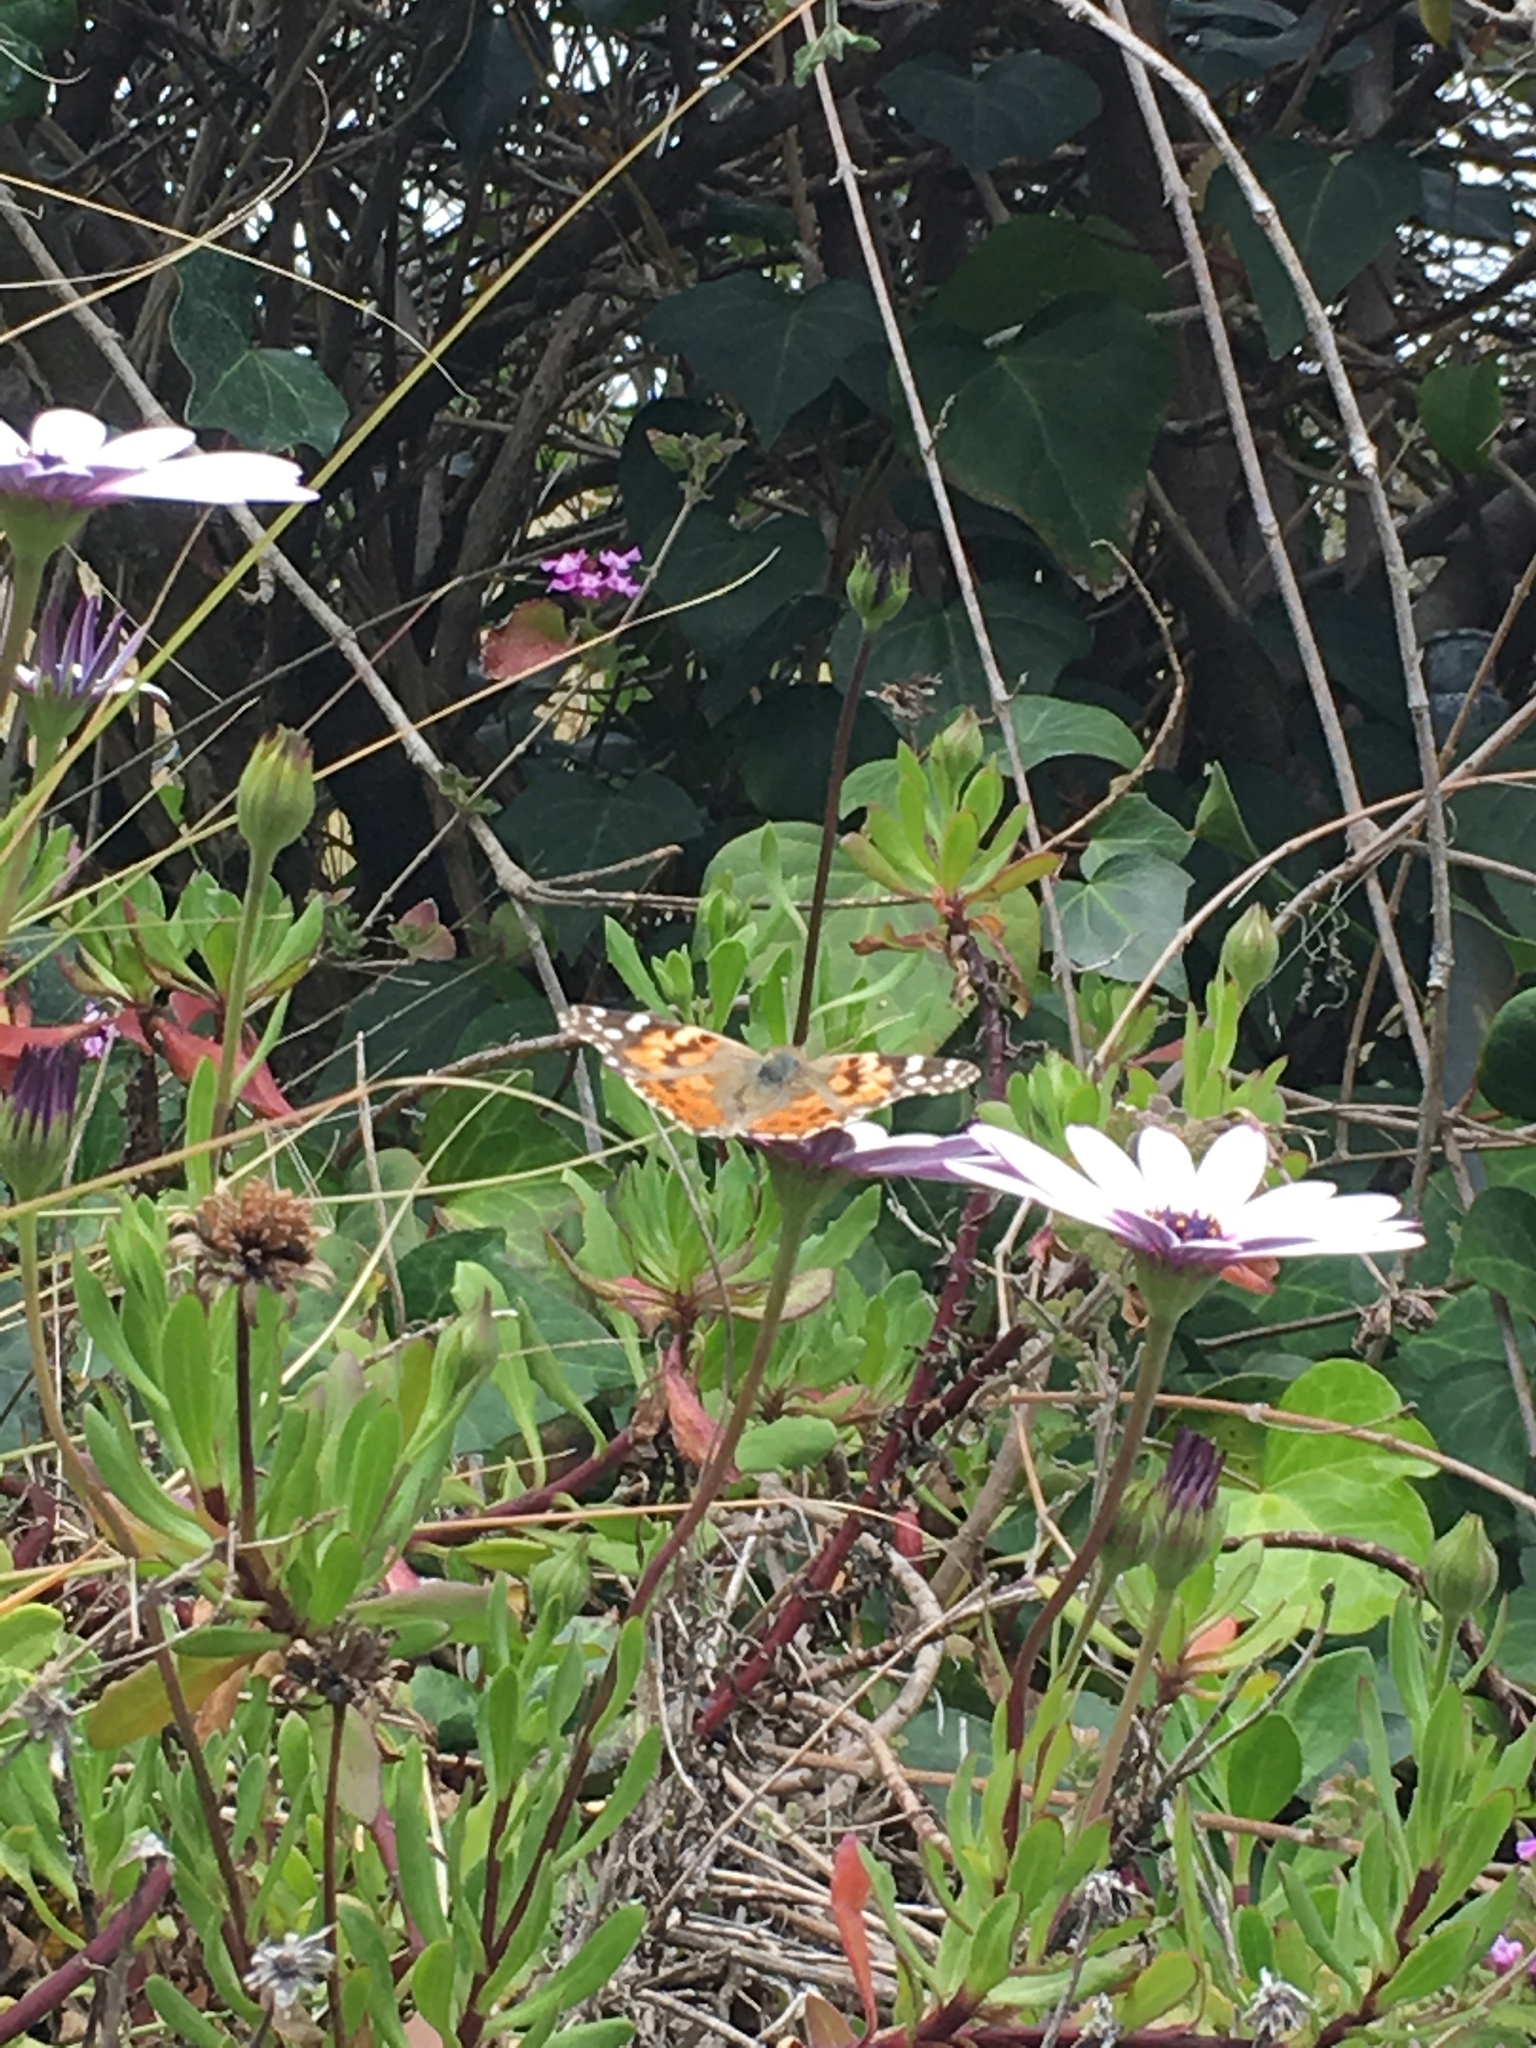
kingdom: Animalia
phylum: Arthropoda
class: Insecta
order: Lepidoptera
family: Nymphalidae
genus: Vanessa
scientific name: Vanessa cardui
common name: Painted lady
